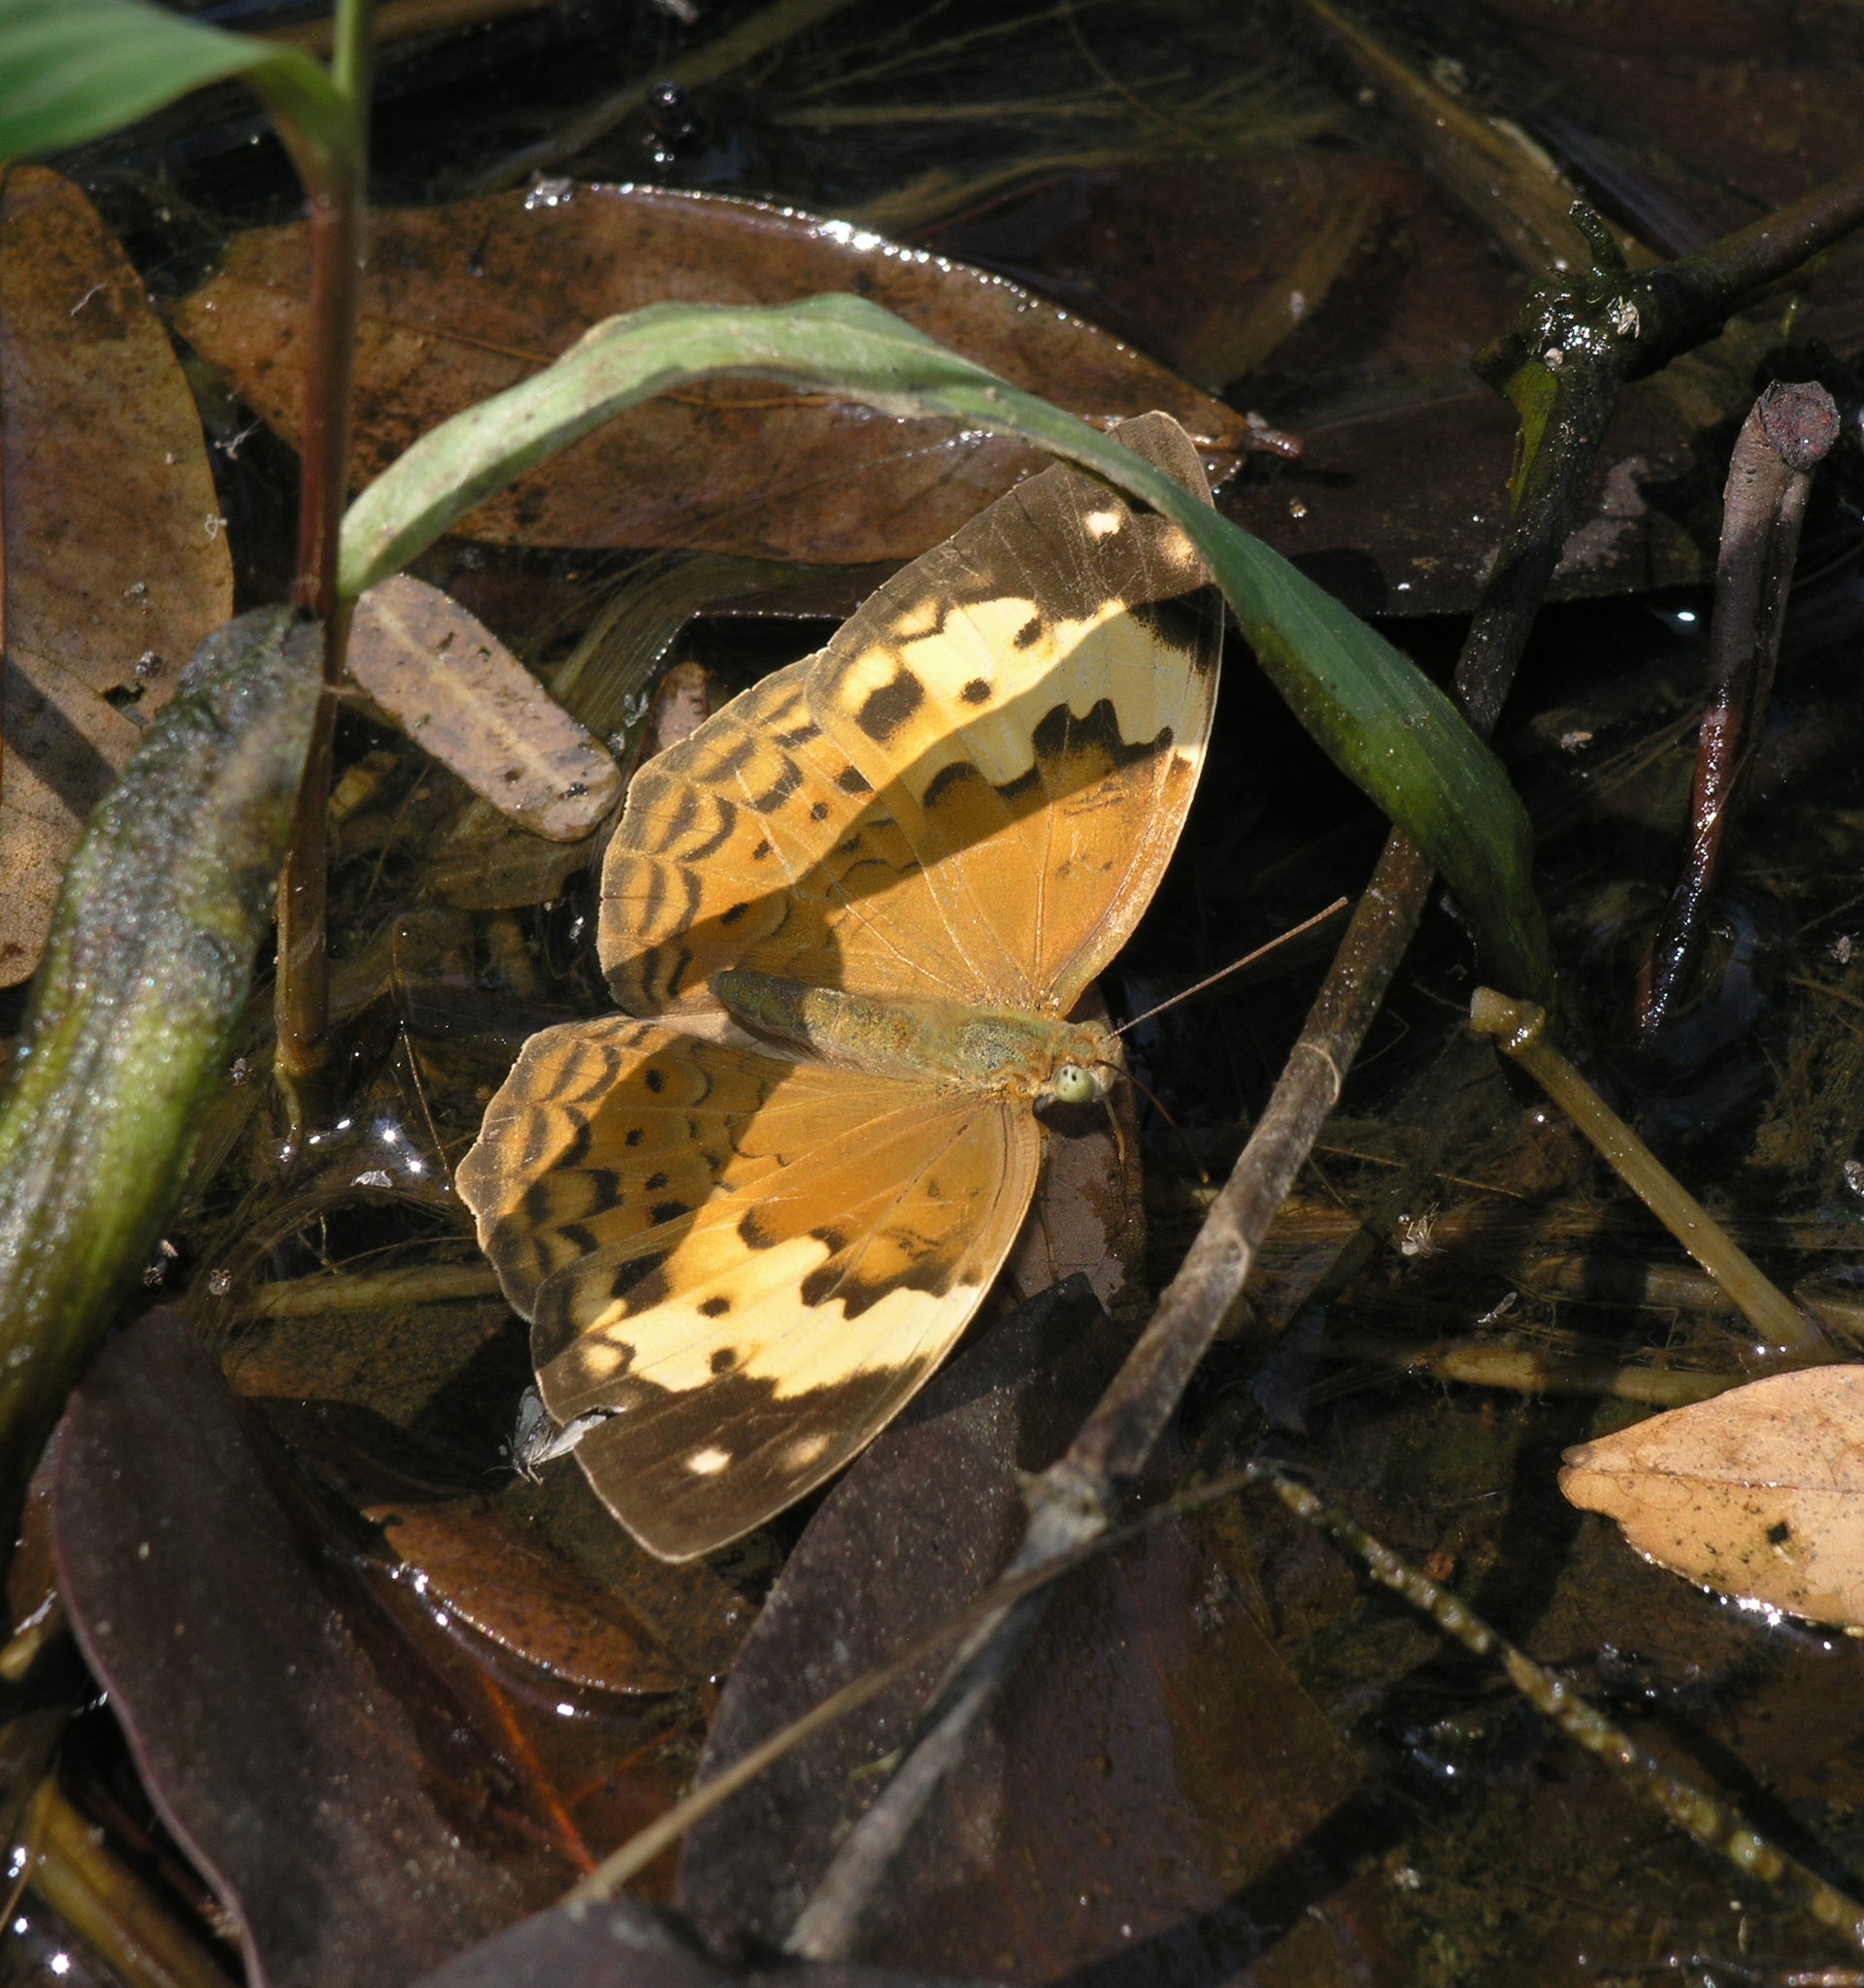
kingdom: Animalia
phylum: Arthropoda
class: Insecta
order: Lepidoptera
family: Nymphalidae
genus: Cupha
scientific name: Cupha erymanthis
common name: Rustic
